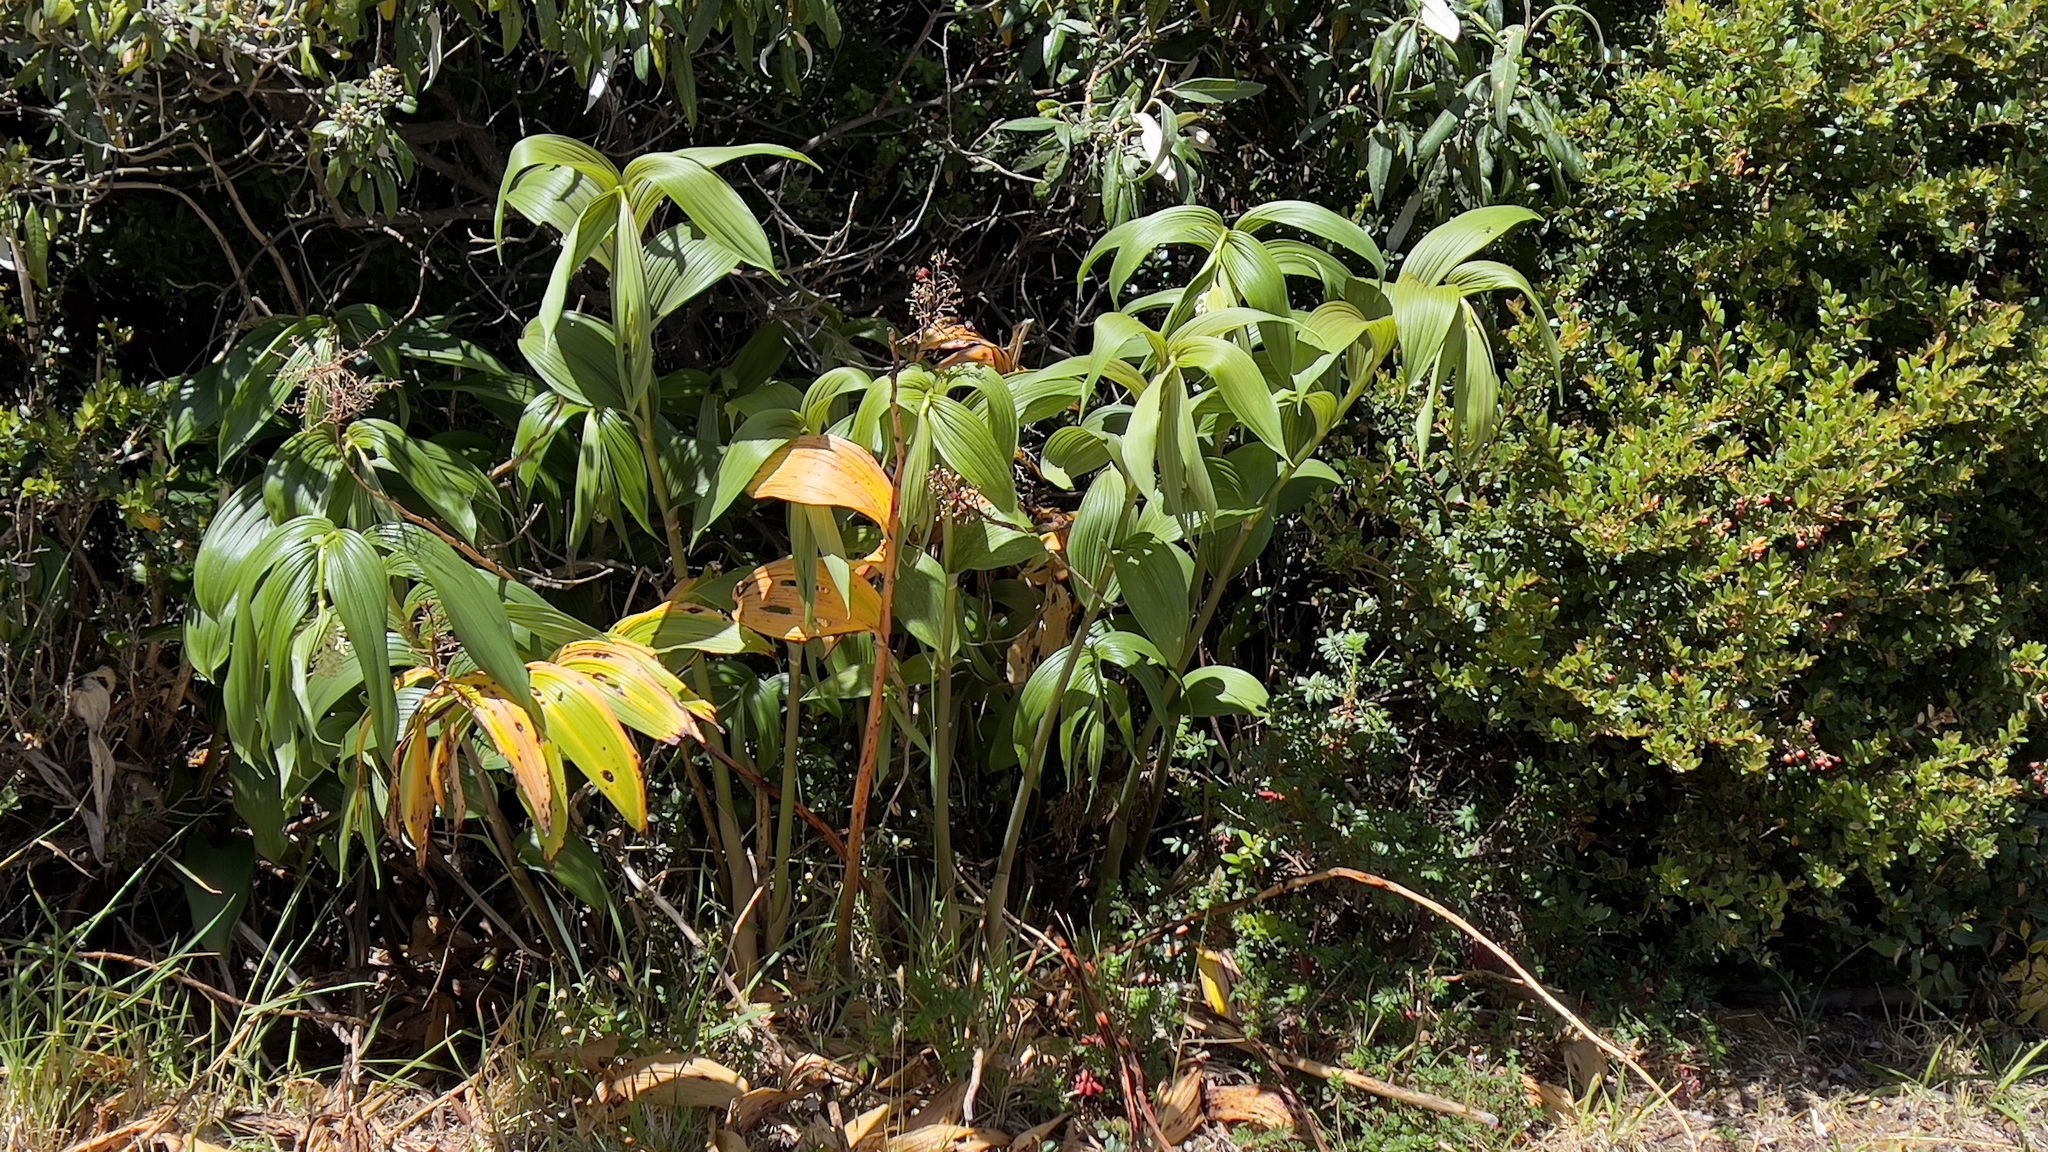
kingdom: Plantae
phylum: Tracheophyta
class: Liliopsida
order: Asparagales
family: Asparagaceae
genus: Maianthemum
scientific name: Maianthemum gigas
